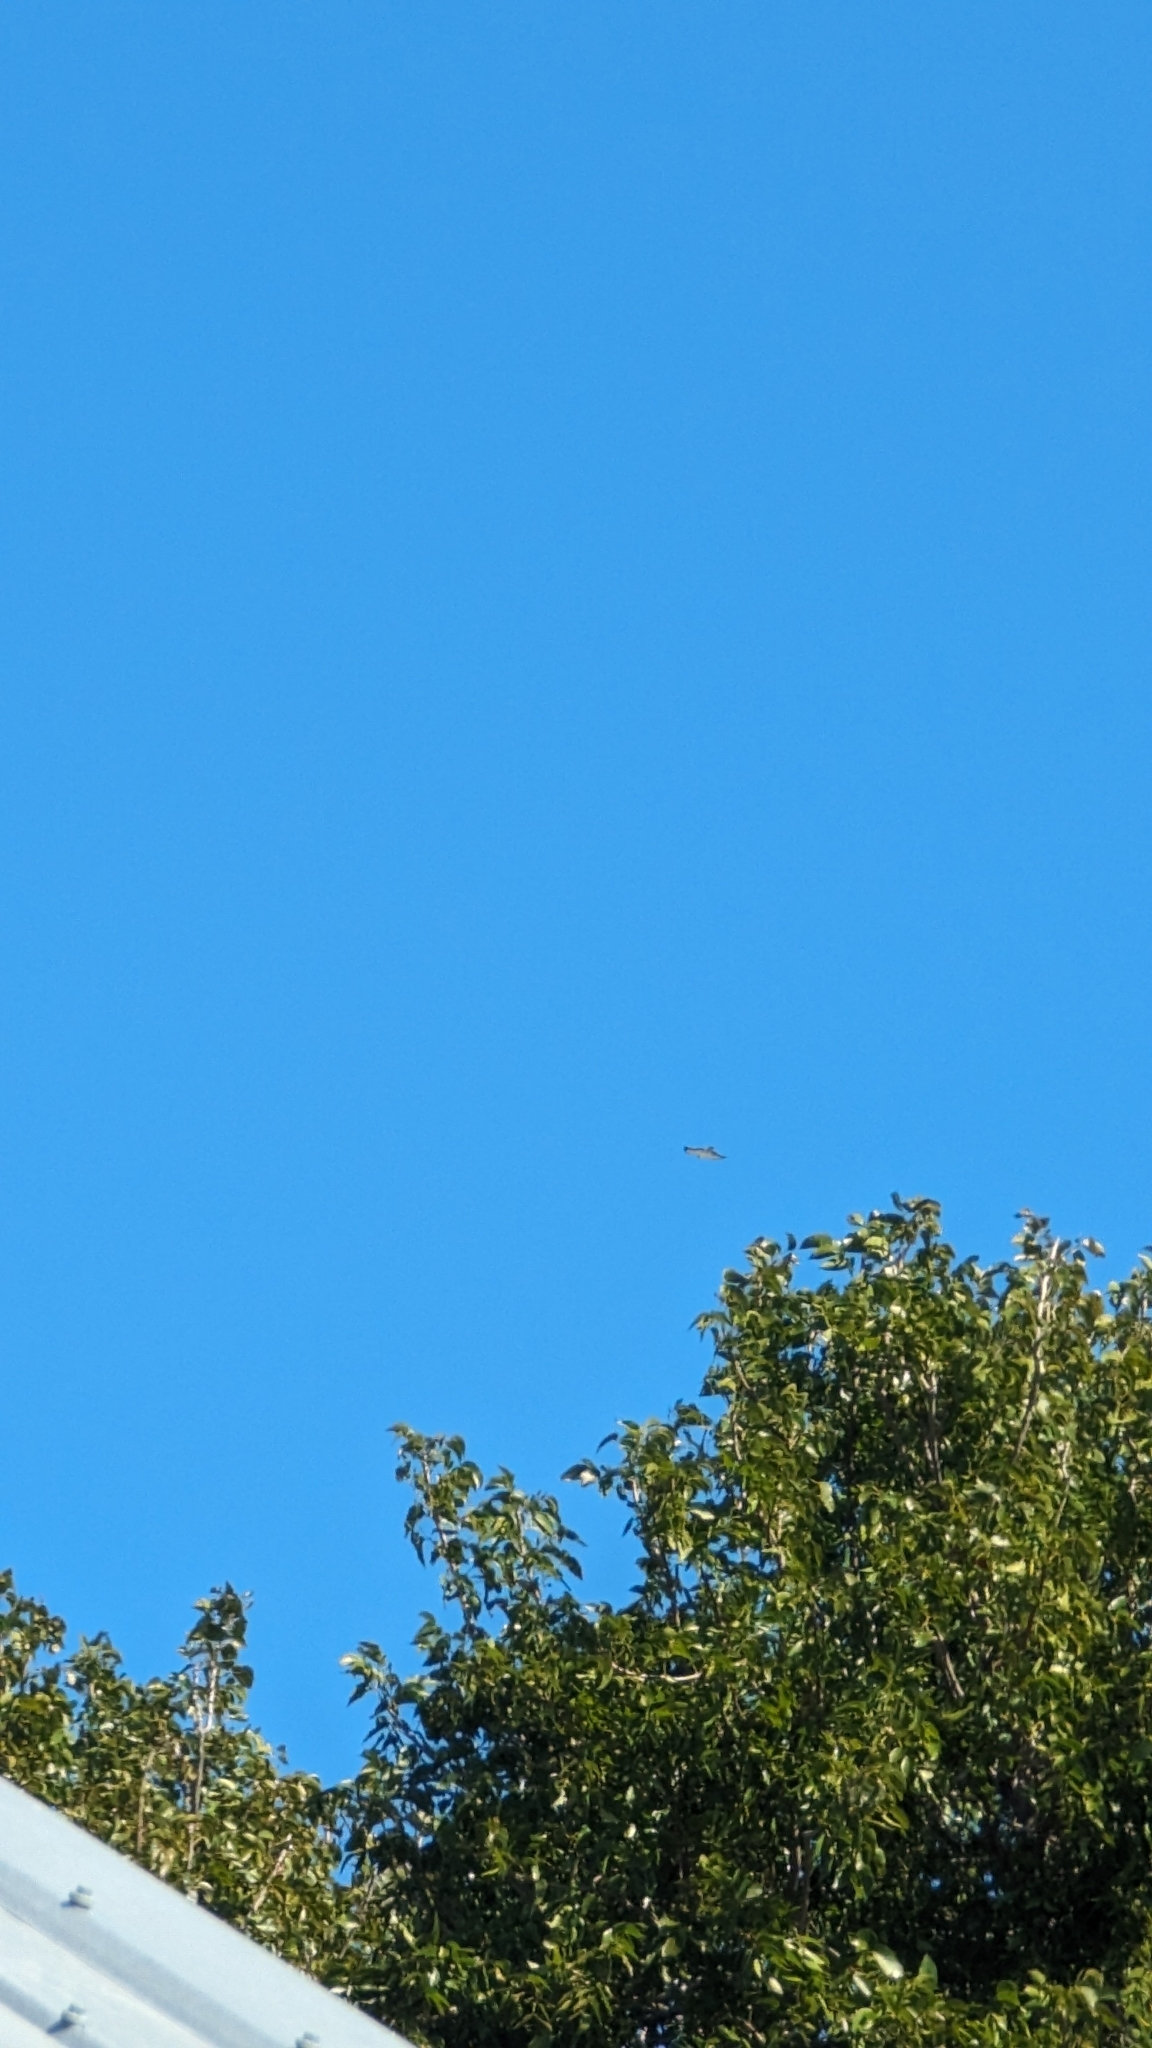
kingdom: Animalia
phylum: Chordata
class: Aves
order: Accipitriformes
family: Accipitridae
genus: Buteo
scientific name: Buteo brachyurus
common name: Short-tailed hawk
